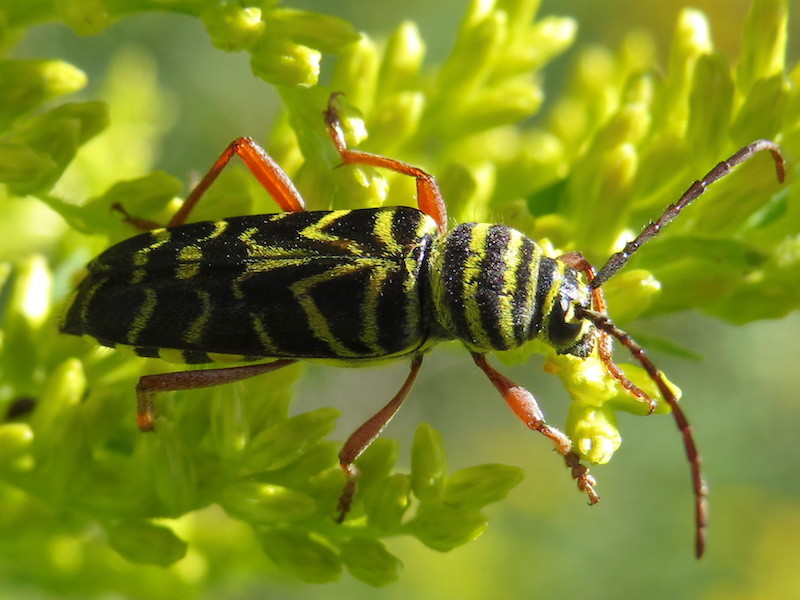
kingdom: Animalia
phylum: Arthropoda
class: Insecta
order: Coleoptera
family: Cerambycidae
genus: Megacyllene
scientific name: Megacyllene robiniae
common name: Locust borer
